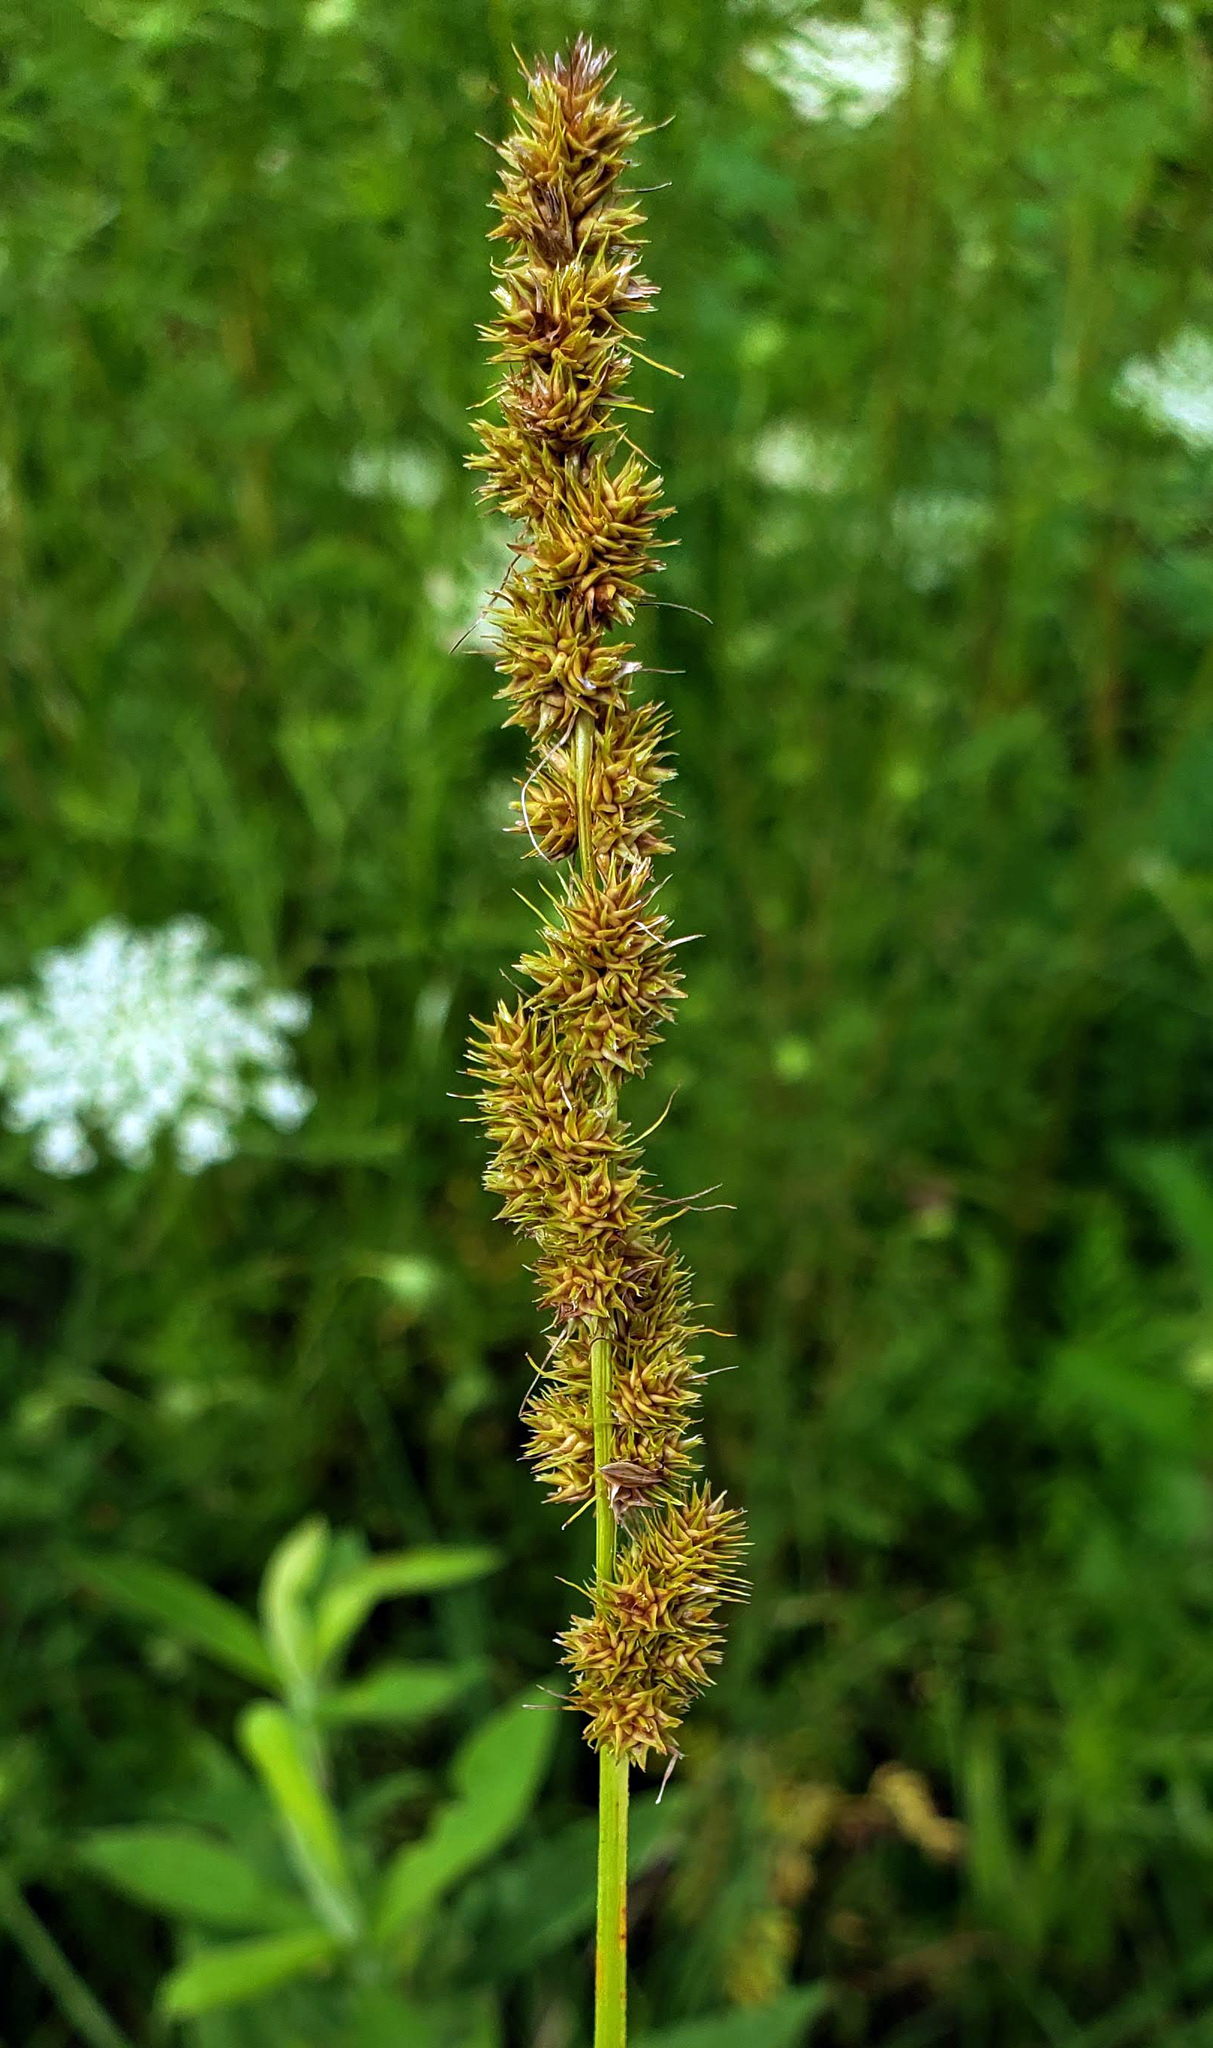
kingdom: Plantae
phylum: Tracheophyta
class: Liliopsida
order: Poales
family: Cyperaceae
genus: Carex
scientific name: Carex vulpinoidea
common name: American fox-sedge
